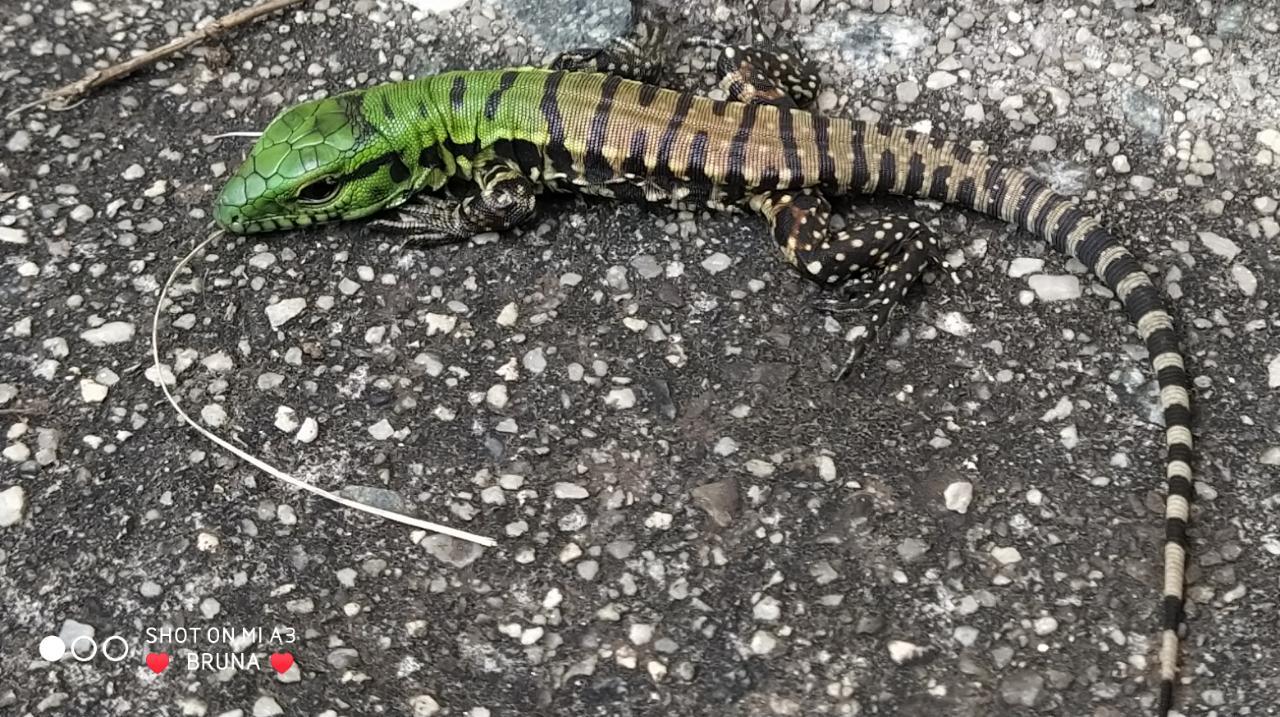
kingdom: Animalia
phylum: Chordata
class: Squamata
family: Teiidae
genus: Salvator
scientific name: Salvator merianae
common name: Argentine black and white tegu
